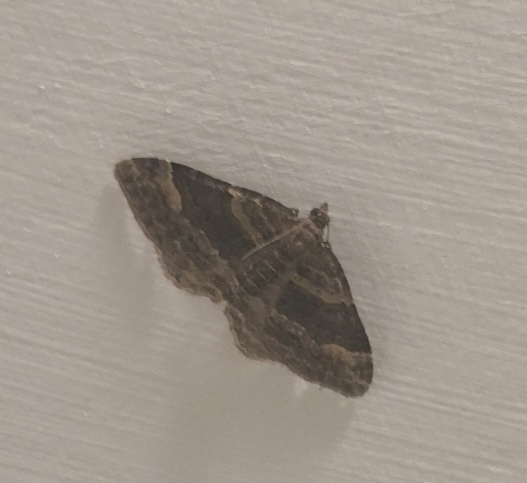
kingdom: Animalia
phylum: Arthropoda
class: Insecta
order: Lepidoptera
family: Geometridae
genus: Epyaxa
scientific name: Epyaxa lucidata
